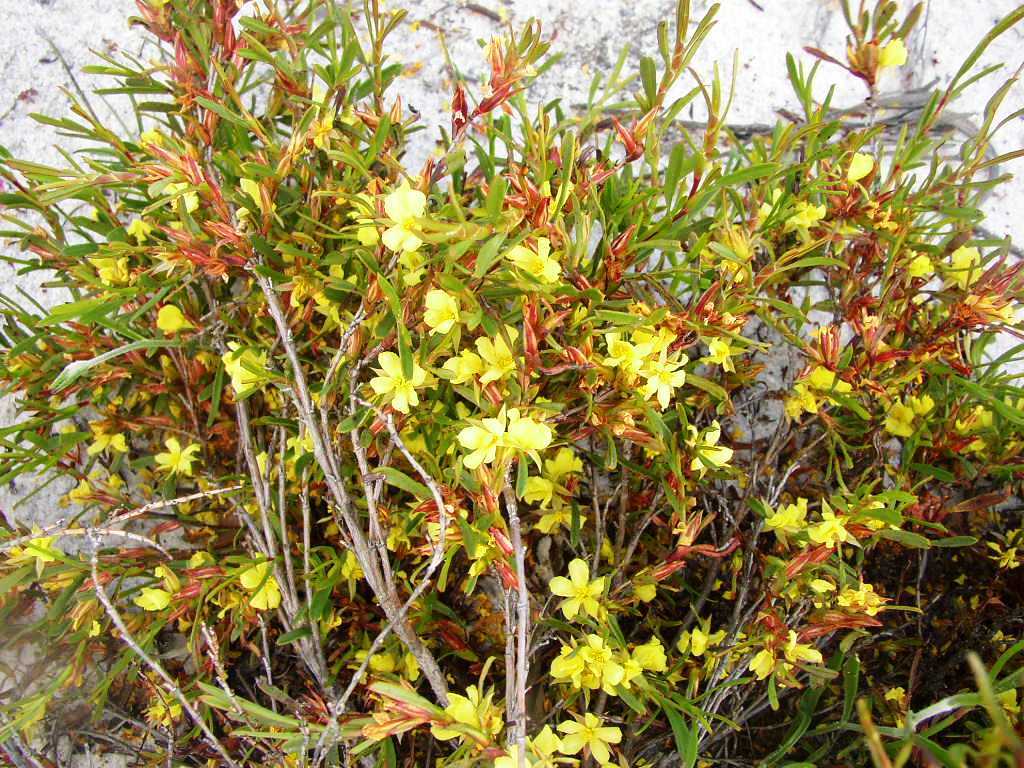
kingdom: Plantae
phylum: Tracheophyta
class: Magnoliopsida
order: Dilleniales
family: Dilleniaceae
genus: Hibbertia
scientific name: Hibbertia subvaginata
